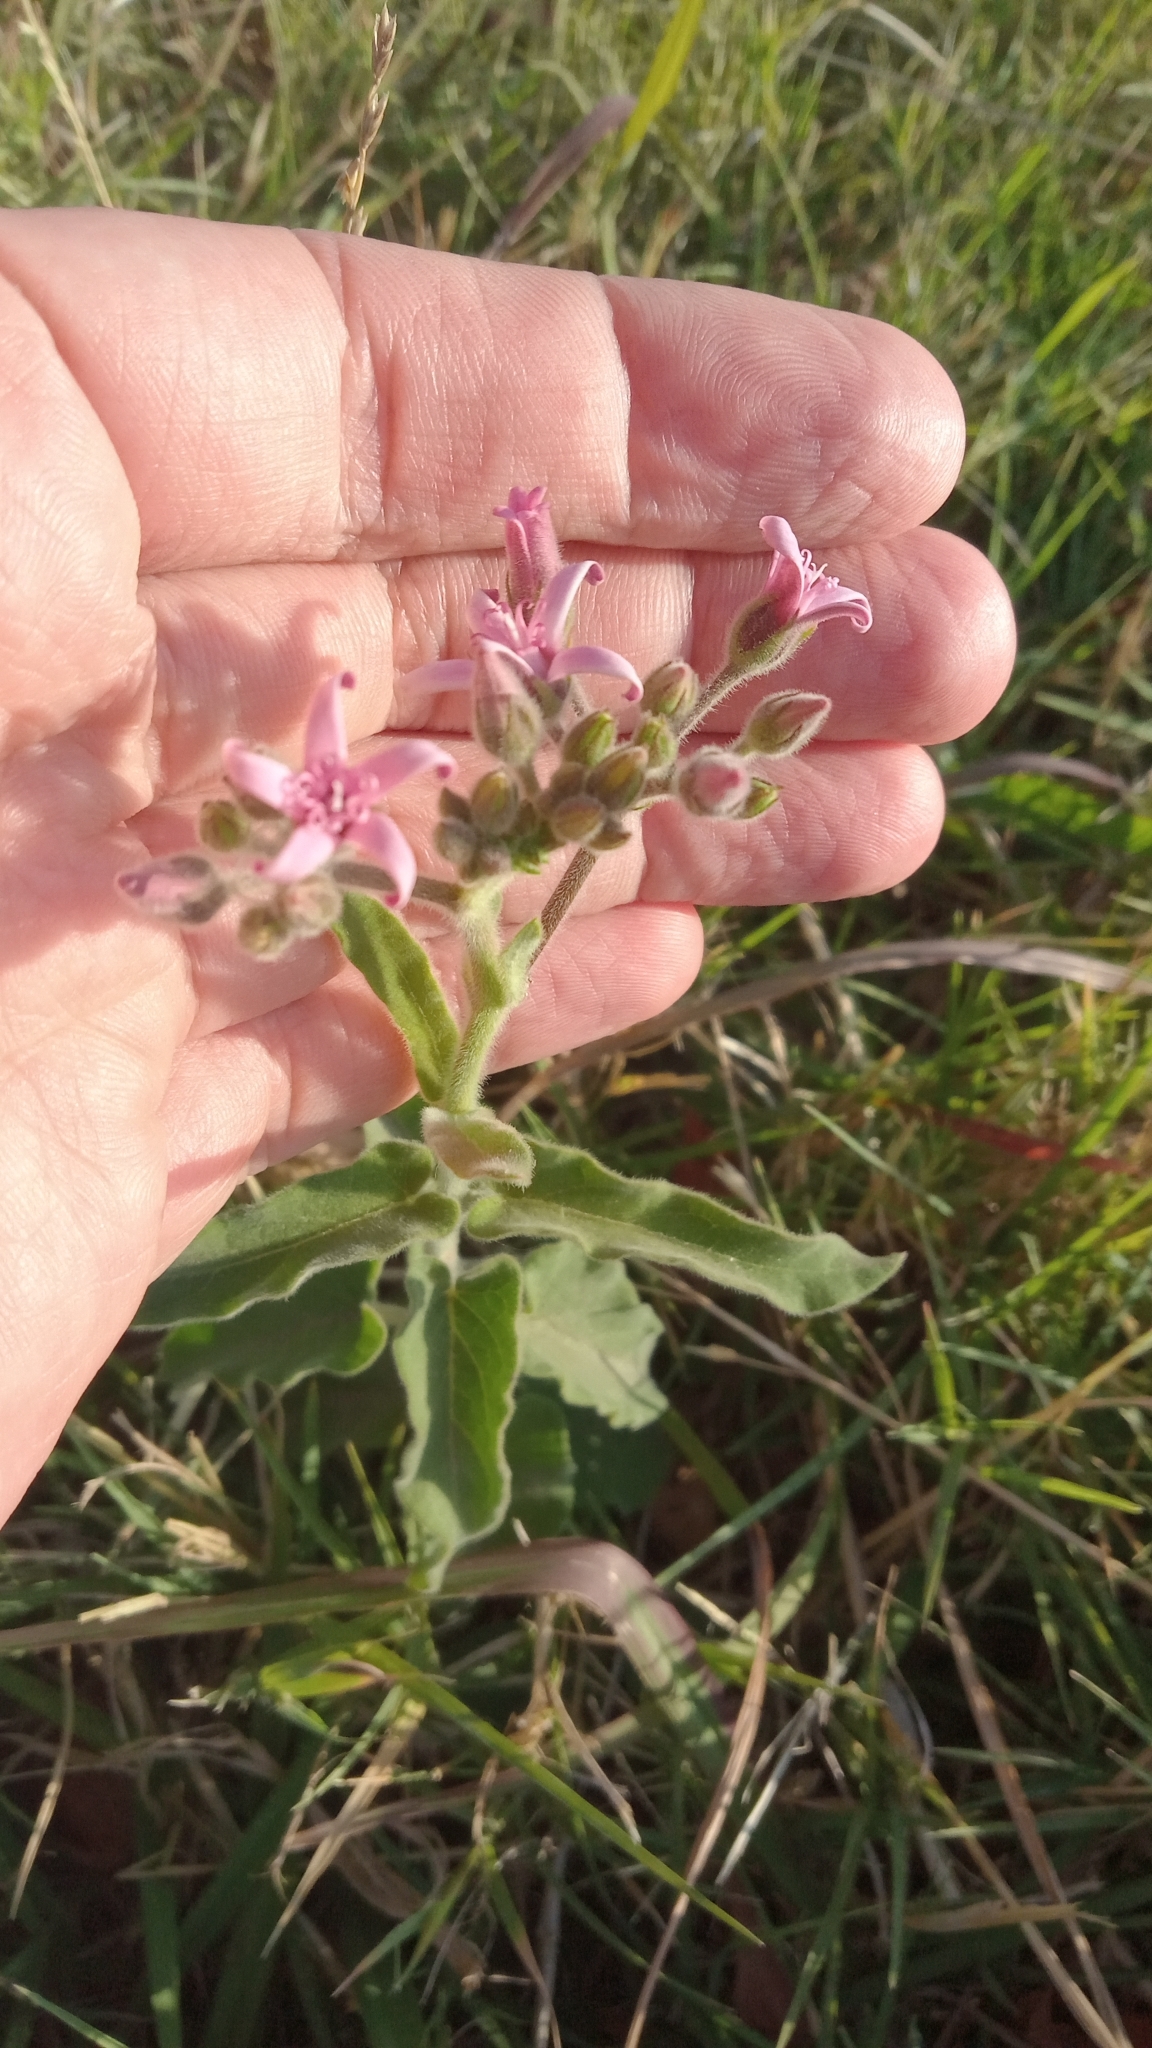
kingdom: Plantae
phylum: Tracheophyta
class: Magnoliopsida
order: Gentianales
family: Apocynaceae
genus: Oxypetalum
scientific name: Oxypetalum solanoides
